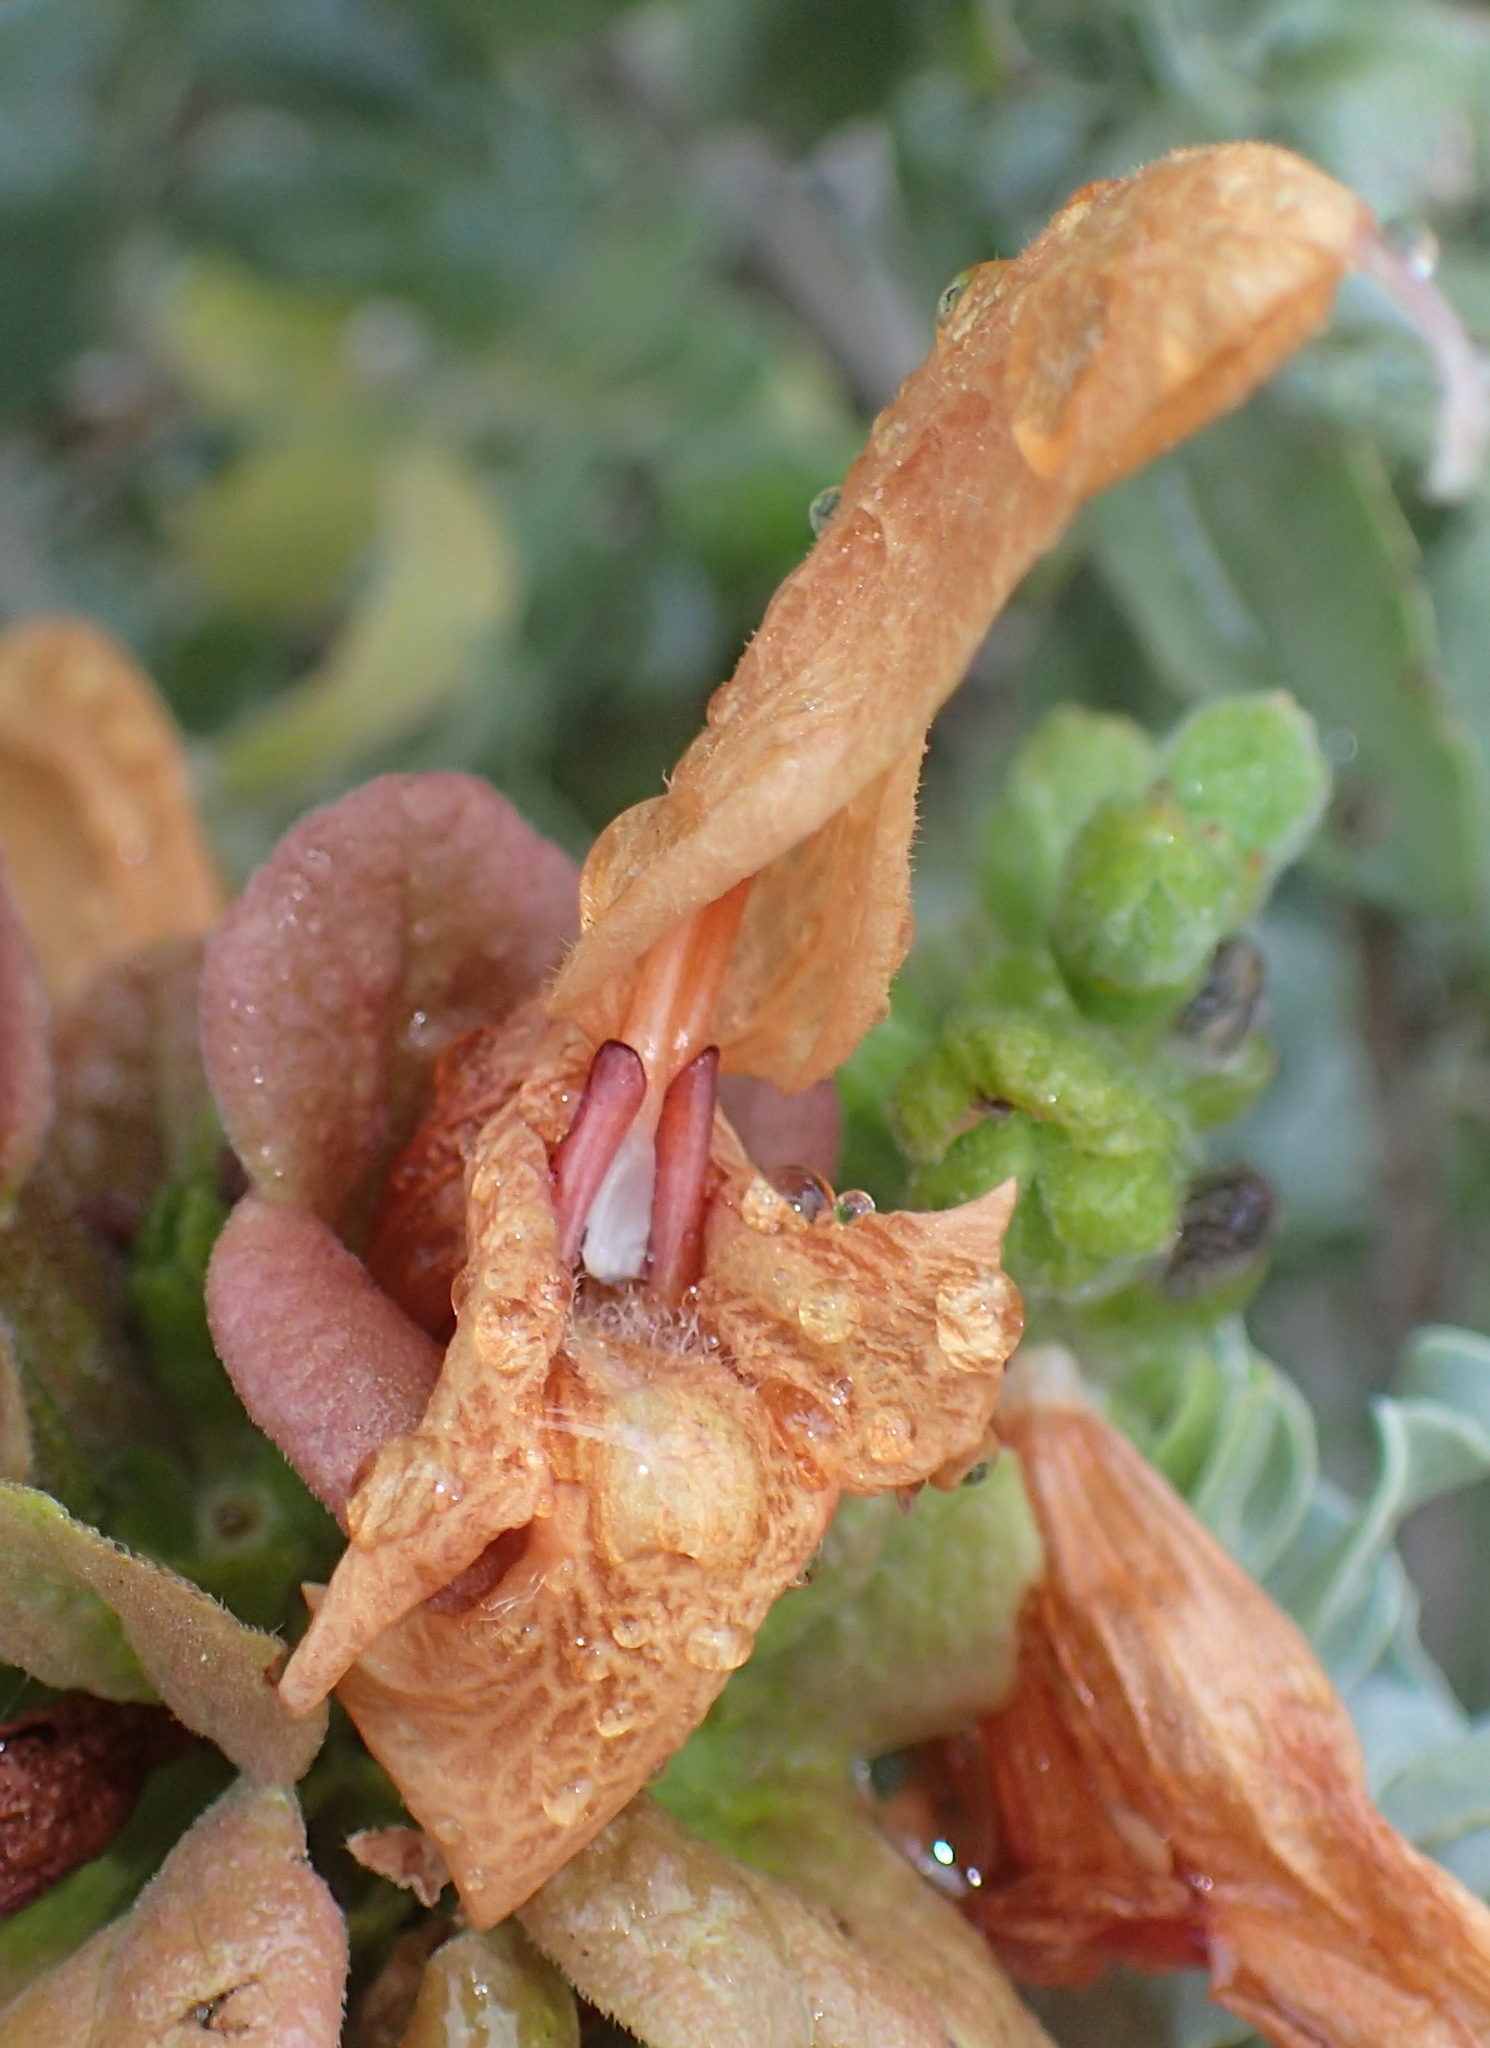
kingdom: Plantae
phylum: Tracheophyta
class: Magnoliopsida
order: Lamiales
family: Lamiaceae
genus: Salvia
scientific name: Salvia aurea
